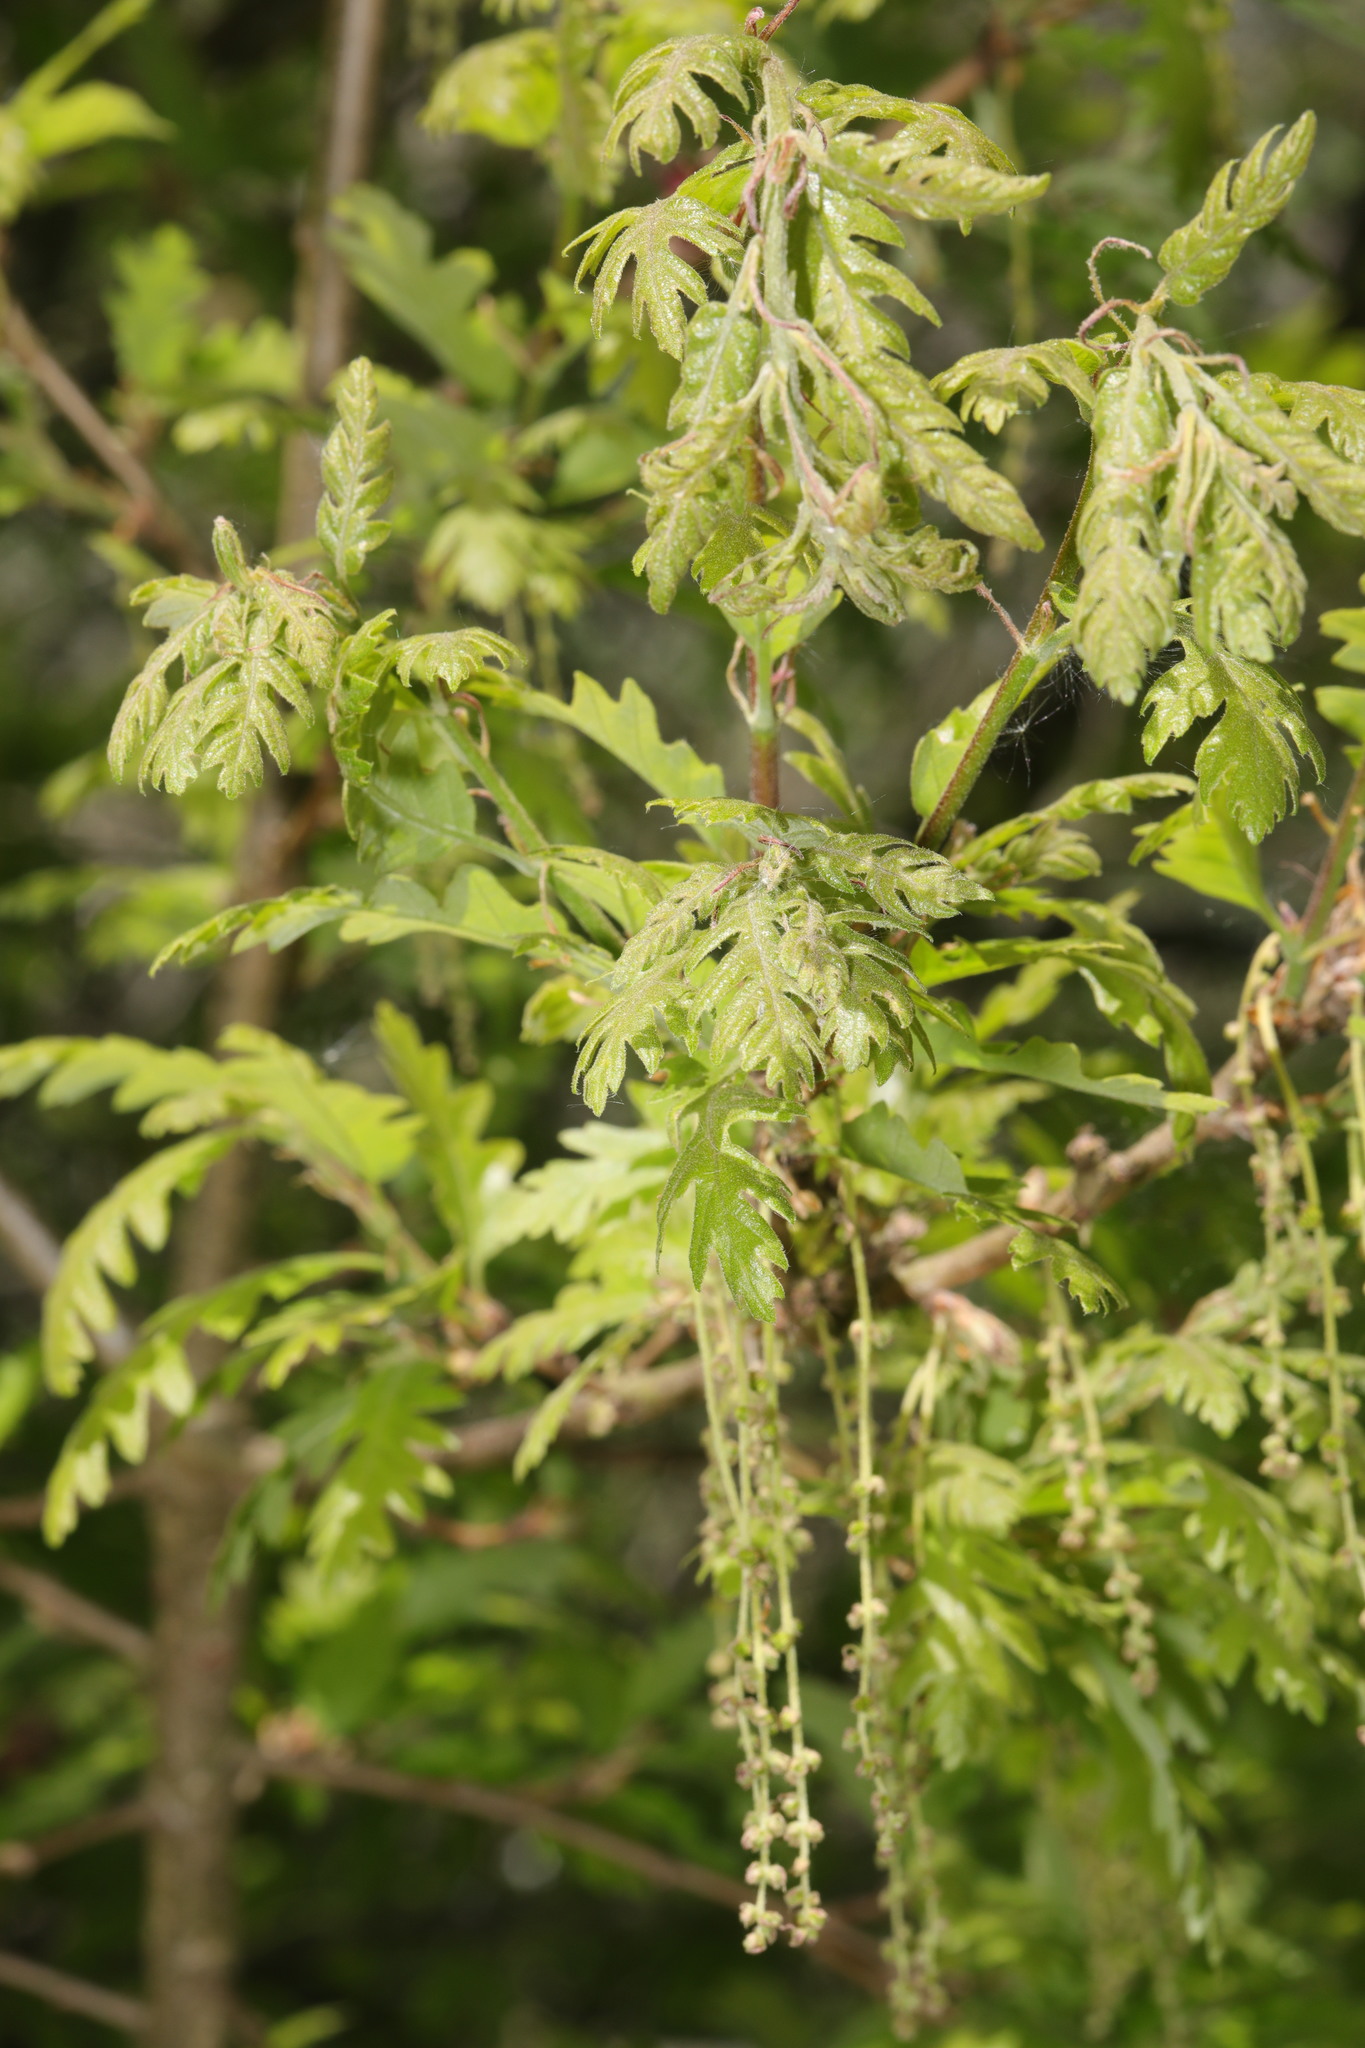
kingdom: Plantae
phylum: Tracheophyta
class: Magnoliopsida
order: Fagales
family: Fagaceae
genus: Quercus
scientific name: Quercus cerris
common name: Turkey oak
